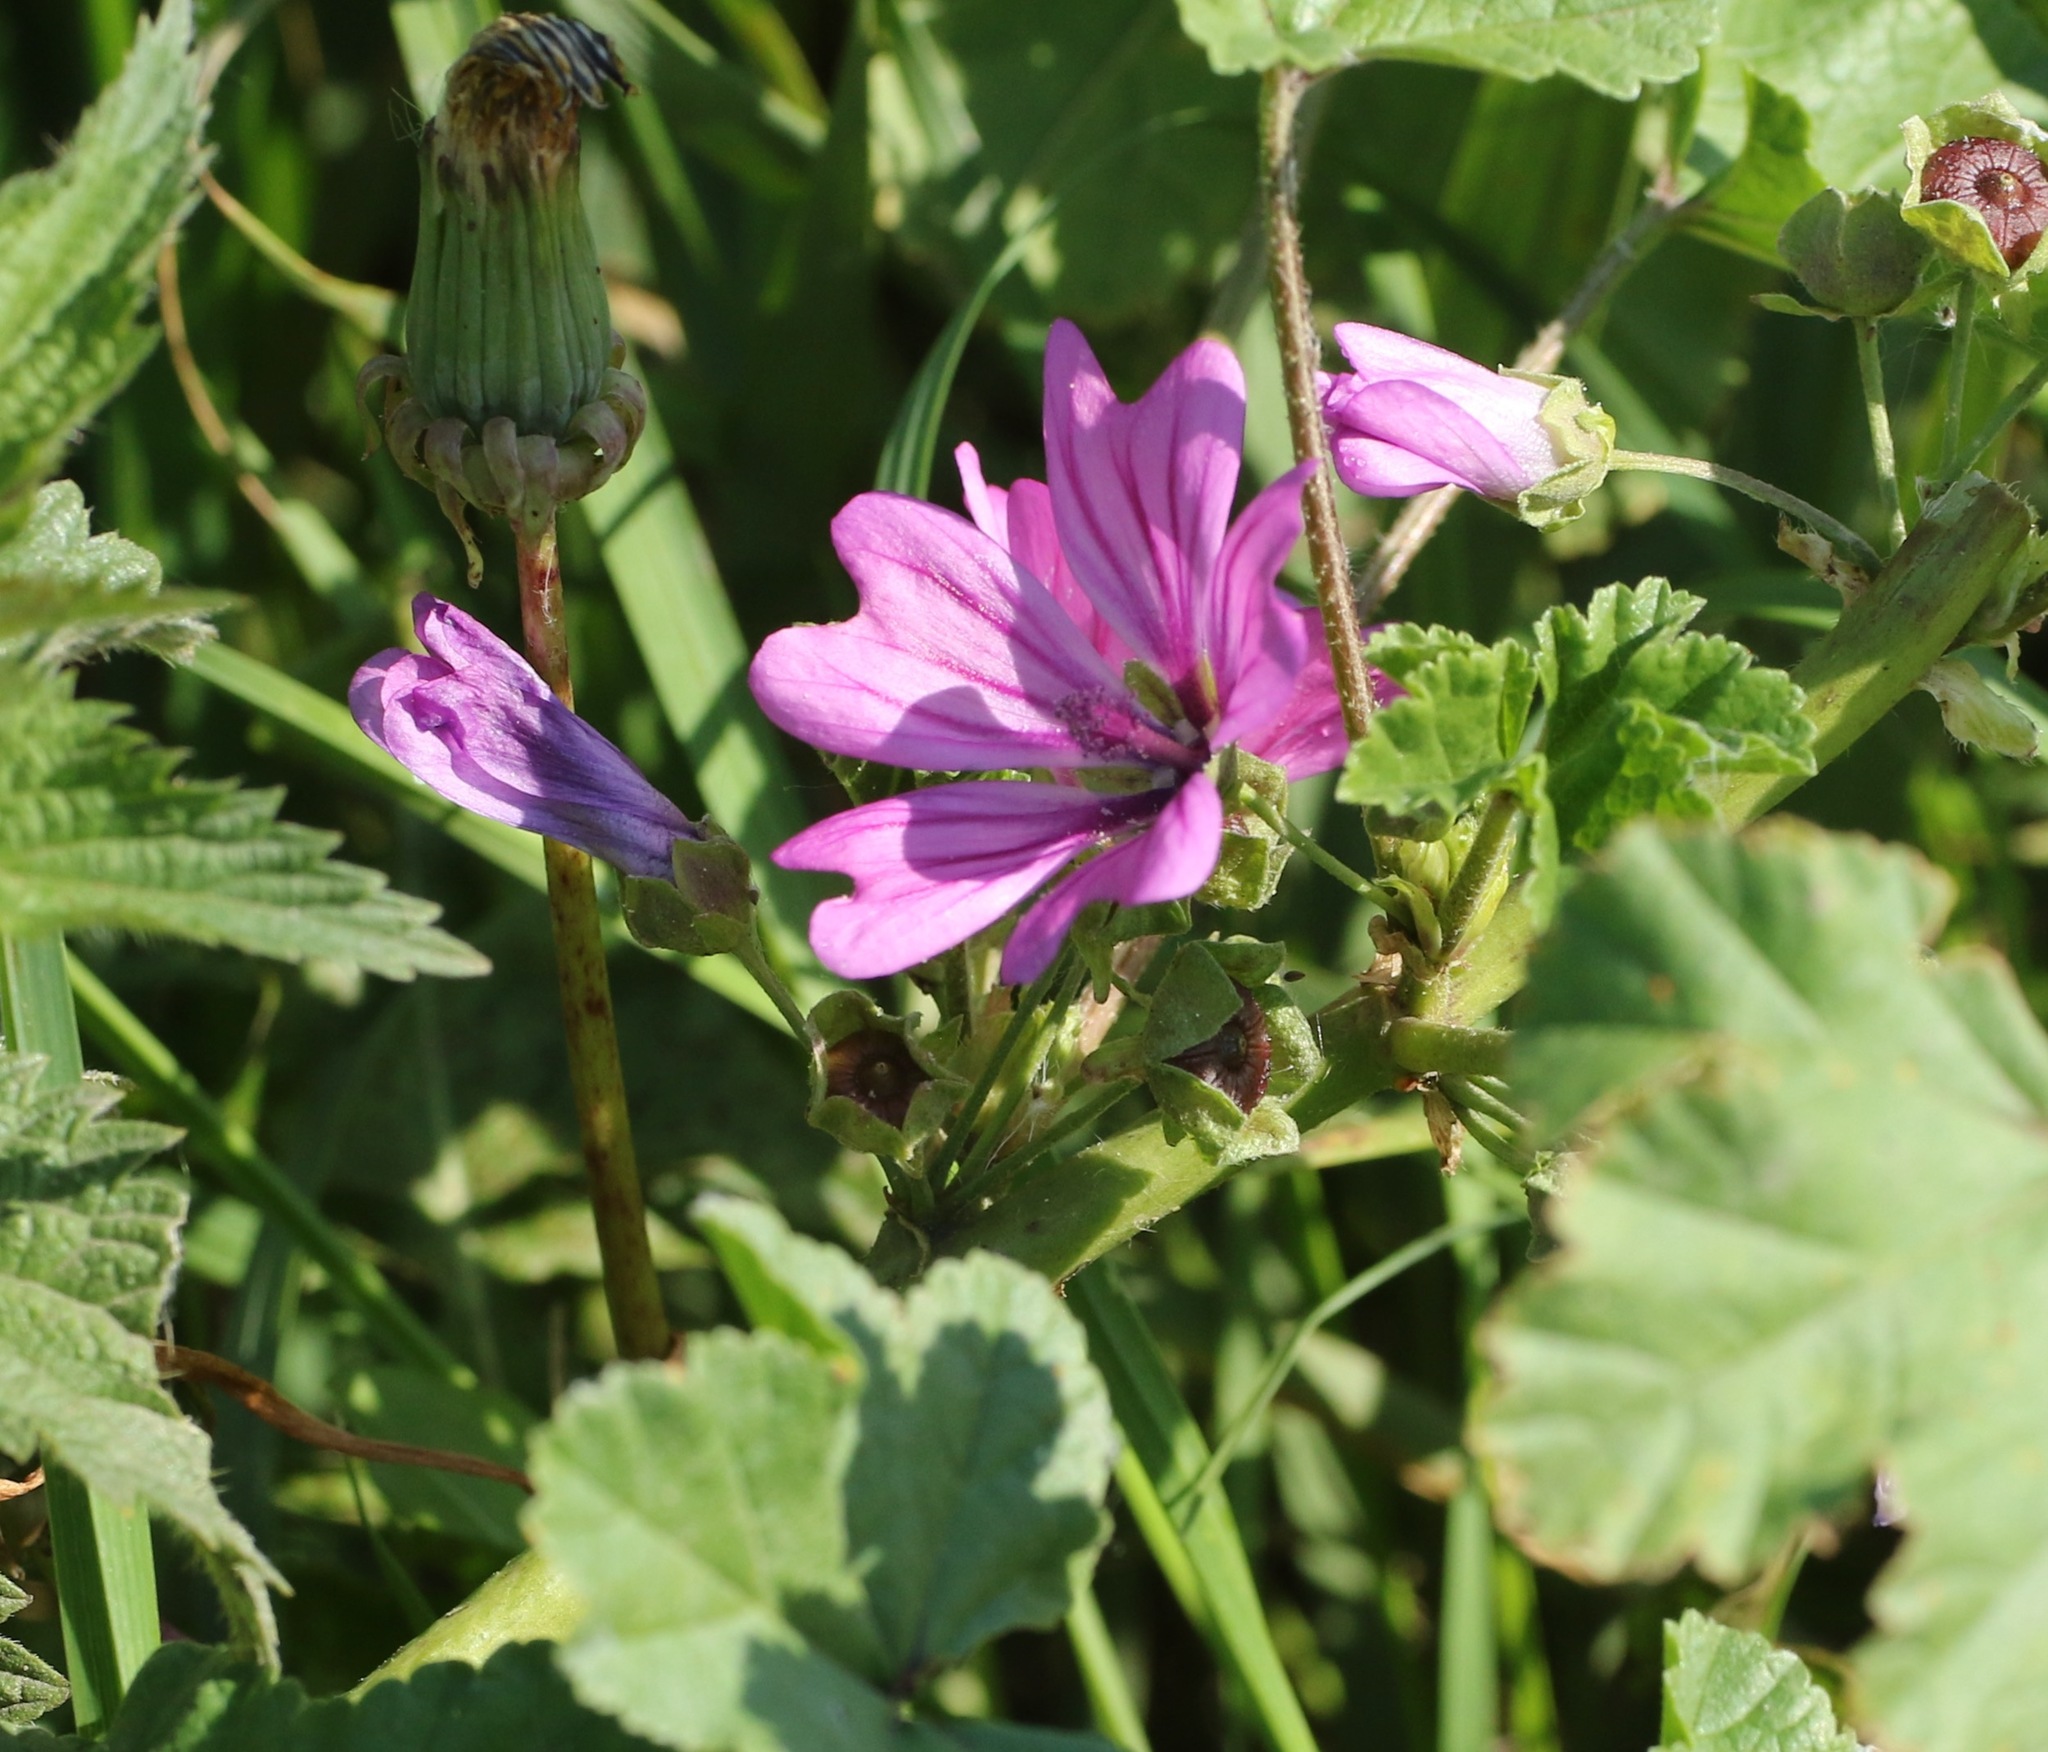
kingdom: Plantae
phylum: Tracheophyta
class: Magnoliopsida
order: Malvales
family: Malvaceae
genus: Malva
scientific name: Malva sylvestris
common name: Common mallow
